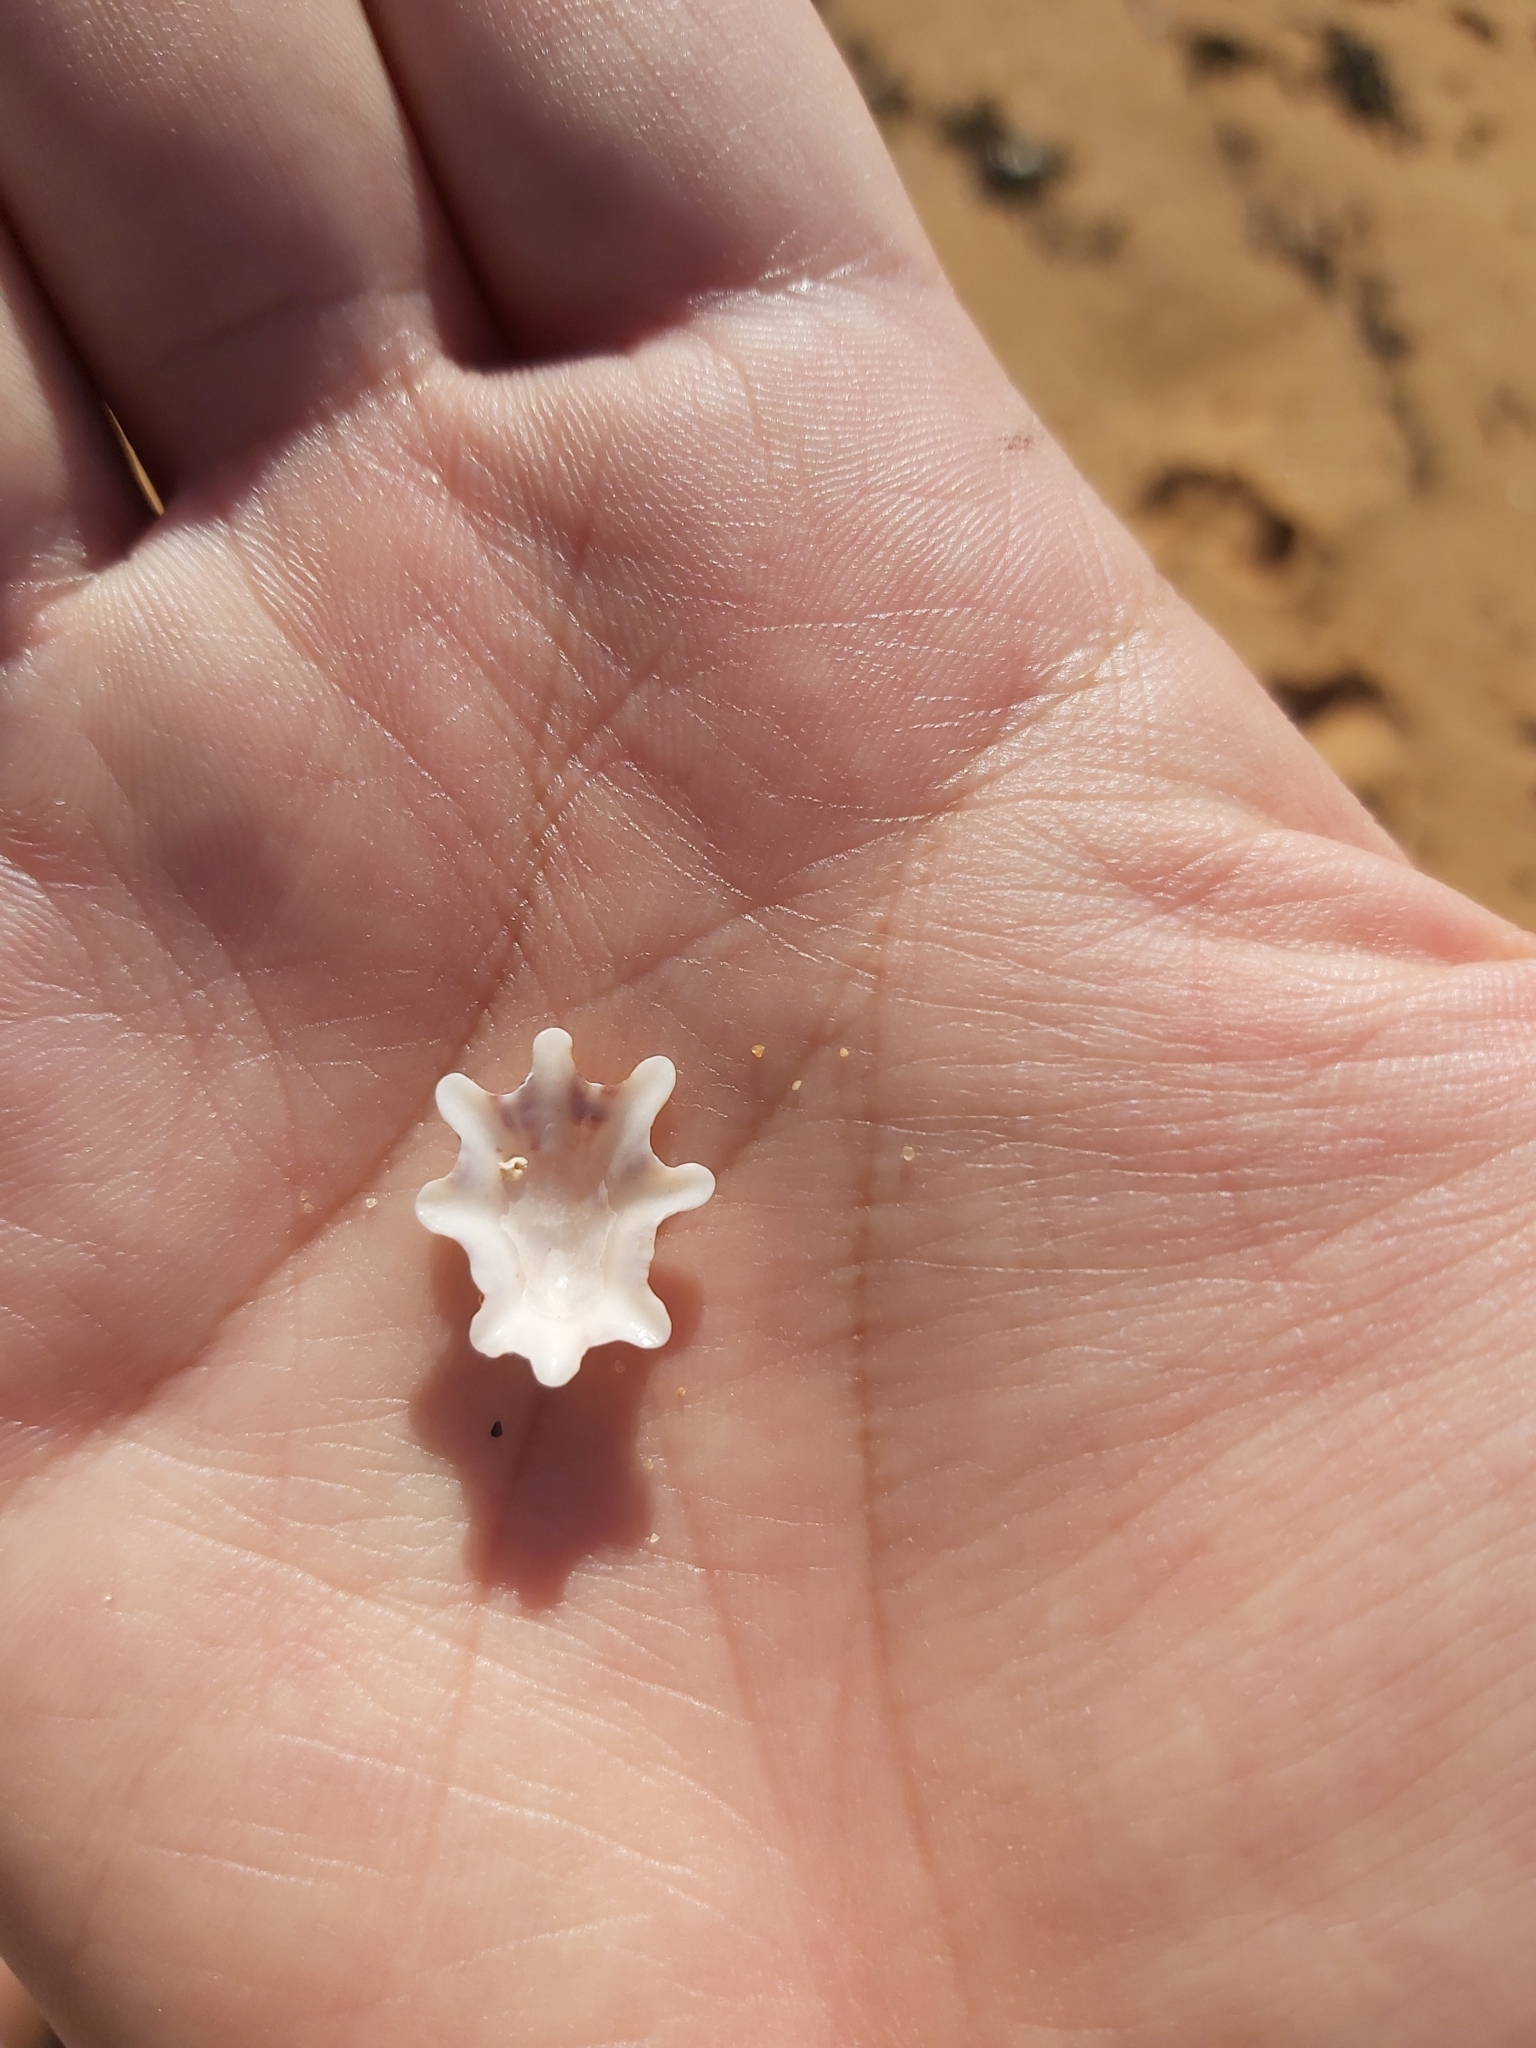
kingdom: Animalia
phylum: Mollusca
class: Gastropoda
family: Patellidae
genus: Scutellastra
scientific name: Scutellastra chapmani
